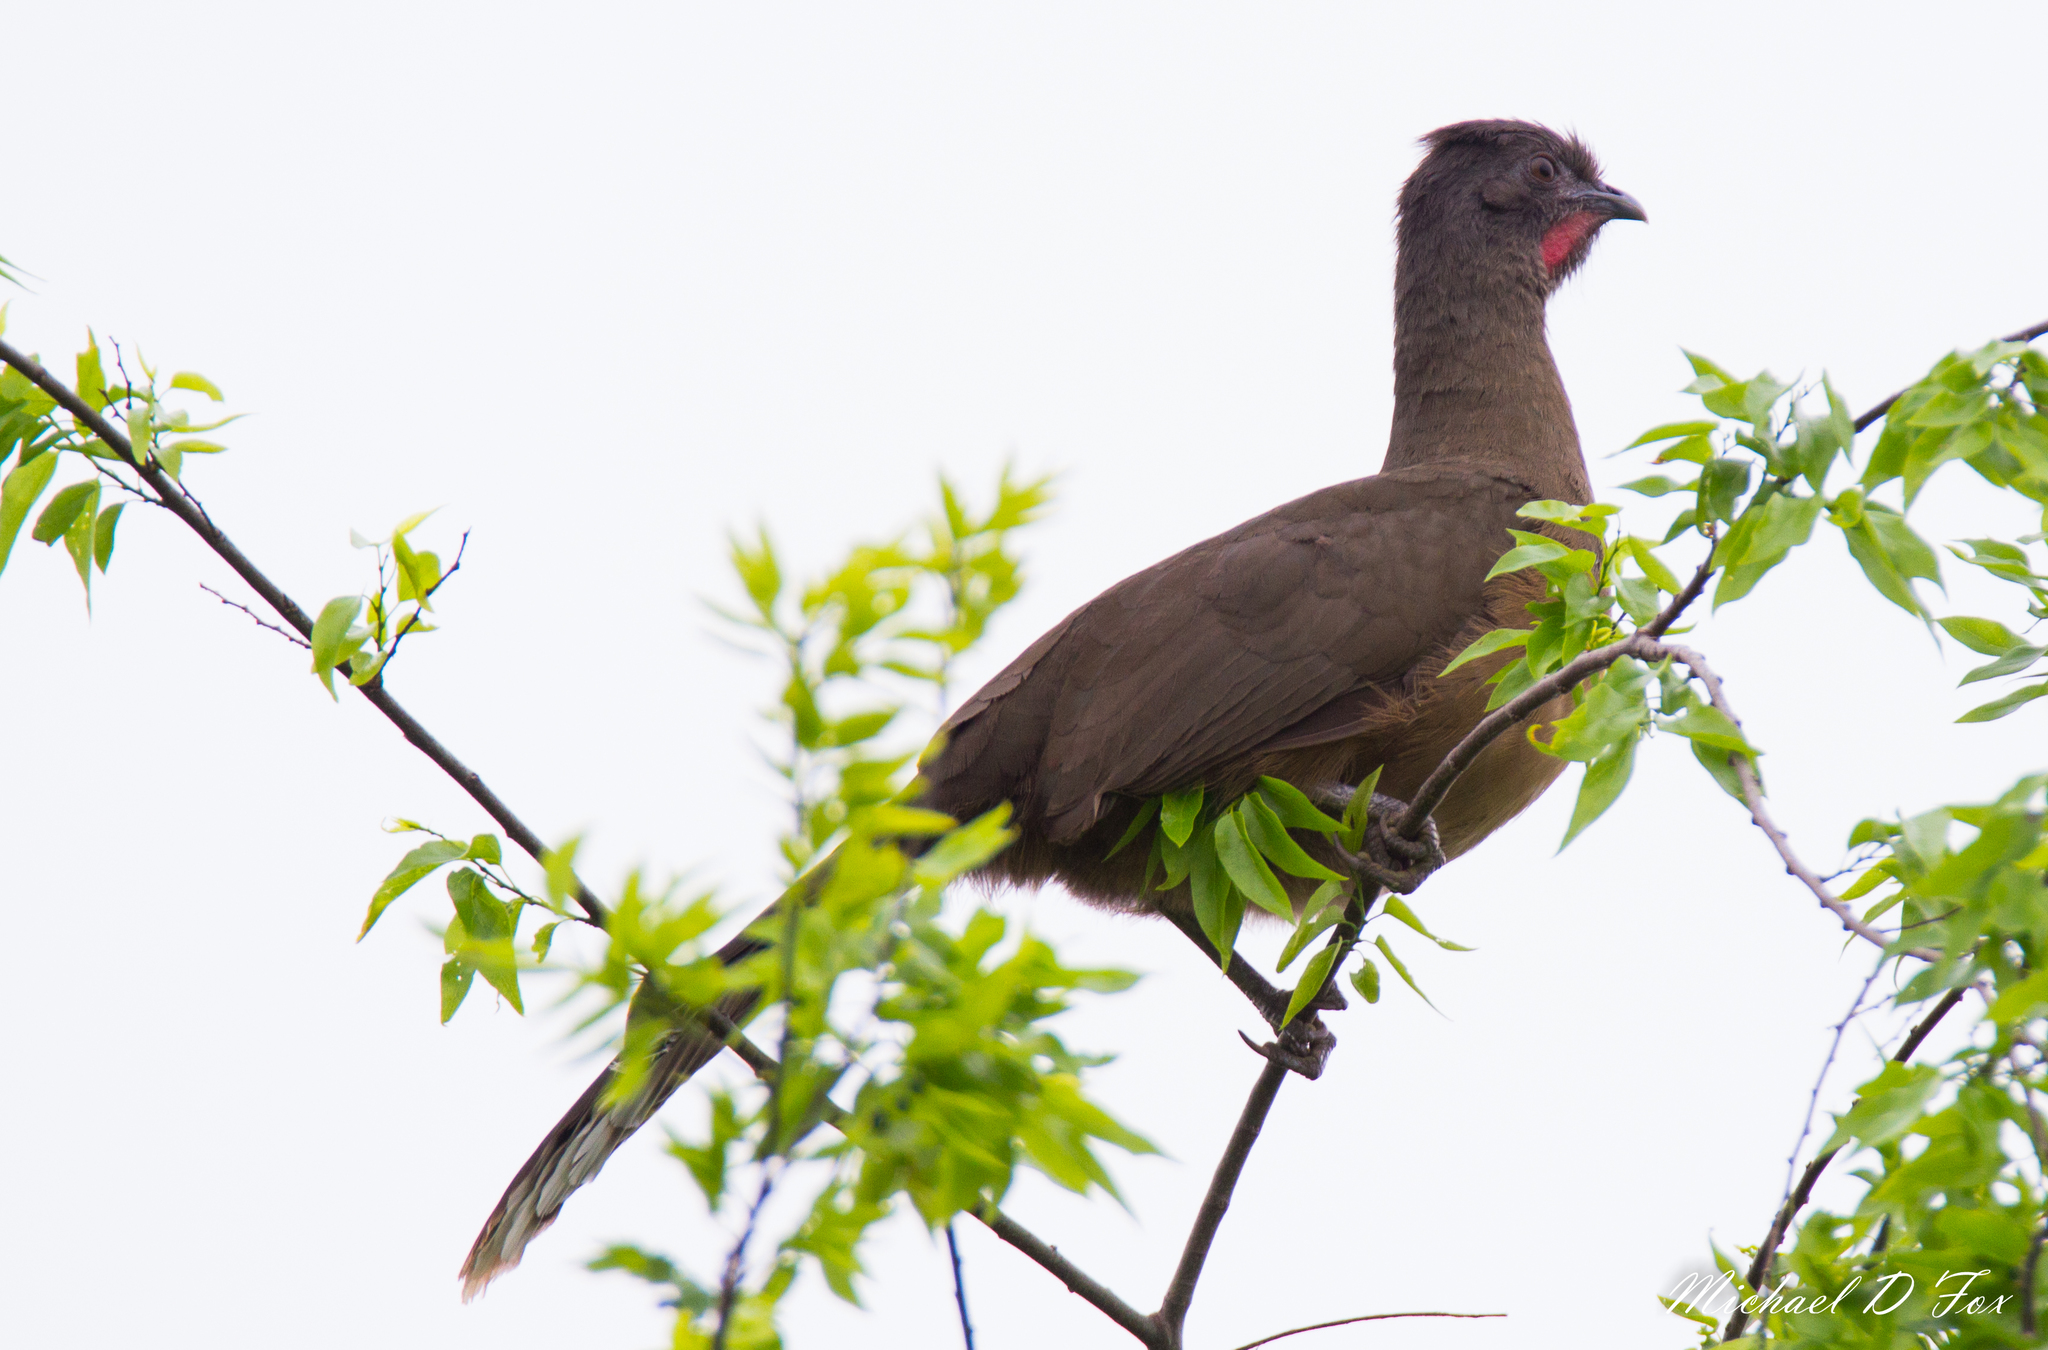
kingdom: Animalia
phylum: Chordata
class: Aves
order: Galliformes
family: Cracidae
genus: Ortalis
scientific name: Ortalis vetula
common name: Plain chachalaca
